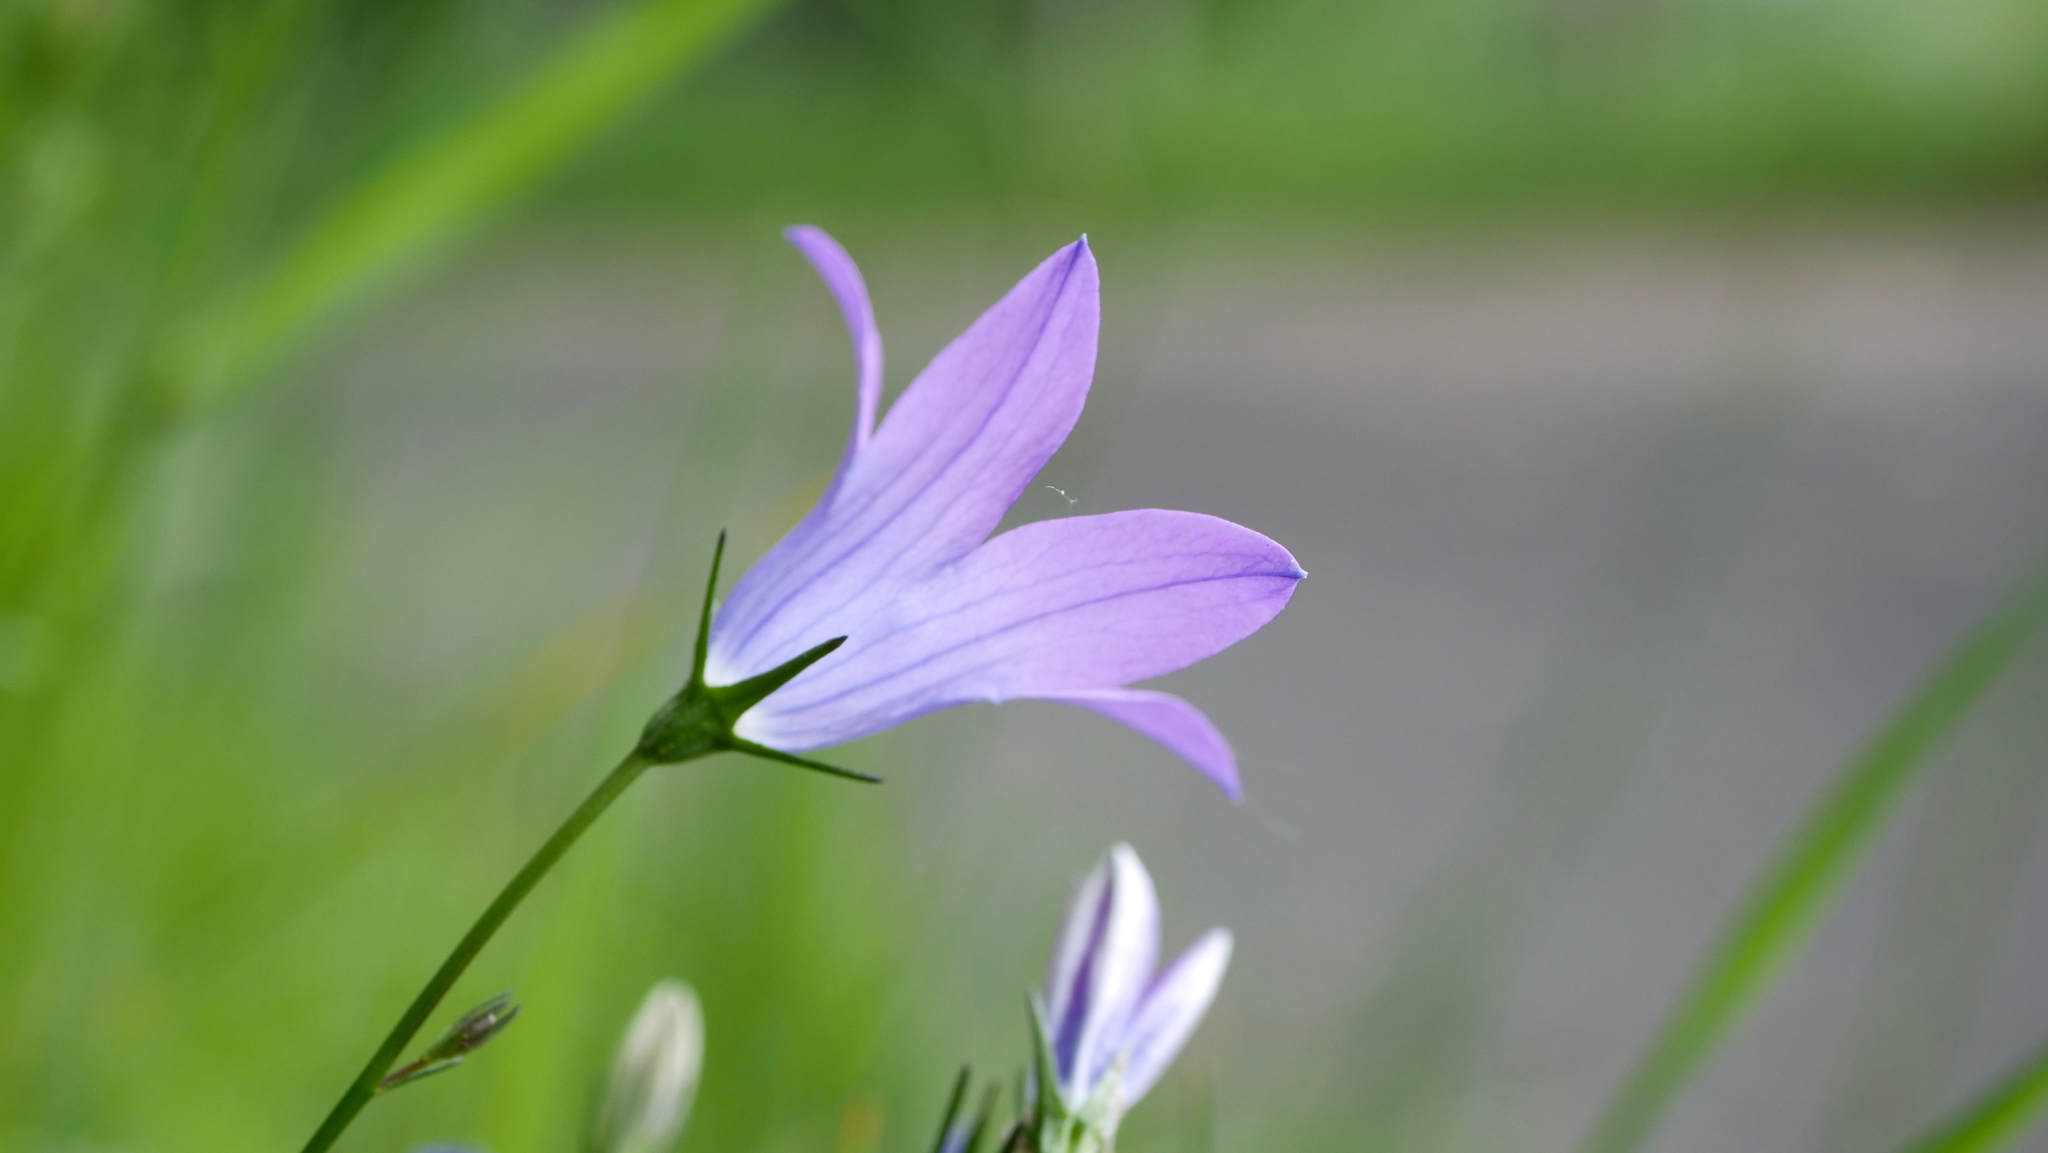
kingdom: Plantae
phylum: Tracheophyta
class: Magnoliopsida
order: Asterales
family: Campanulaceae
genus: Campanula
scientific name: Campanula patula
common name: Spreading bellflower
